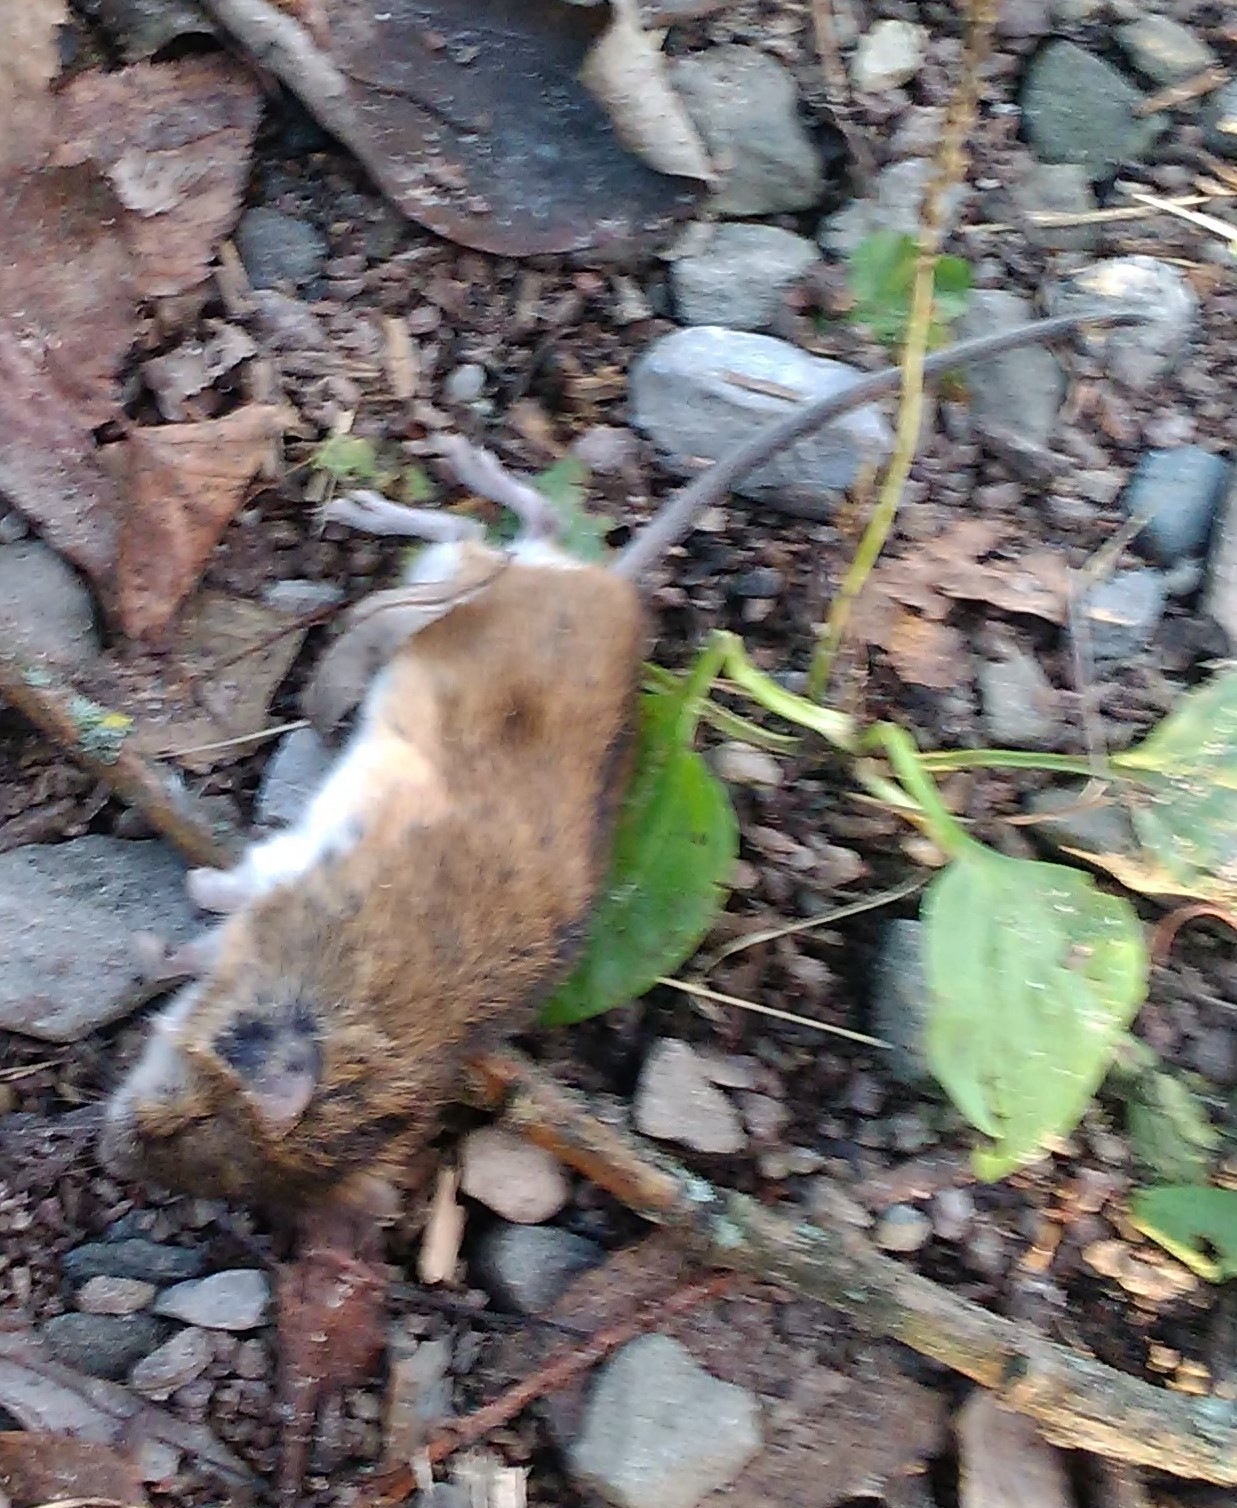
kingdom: Animalia
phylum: Chordata
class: Mammalia
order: Rodentia
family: Muridae
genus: Apodemus
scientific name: Apodemus agrarius
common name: Striped field mouse
